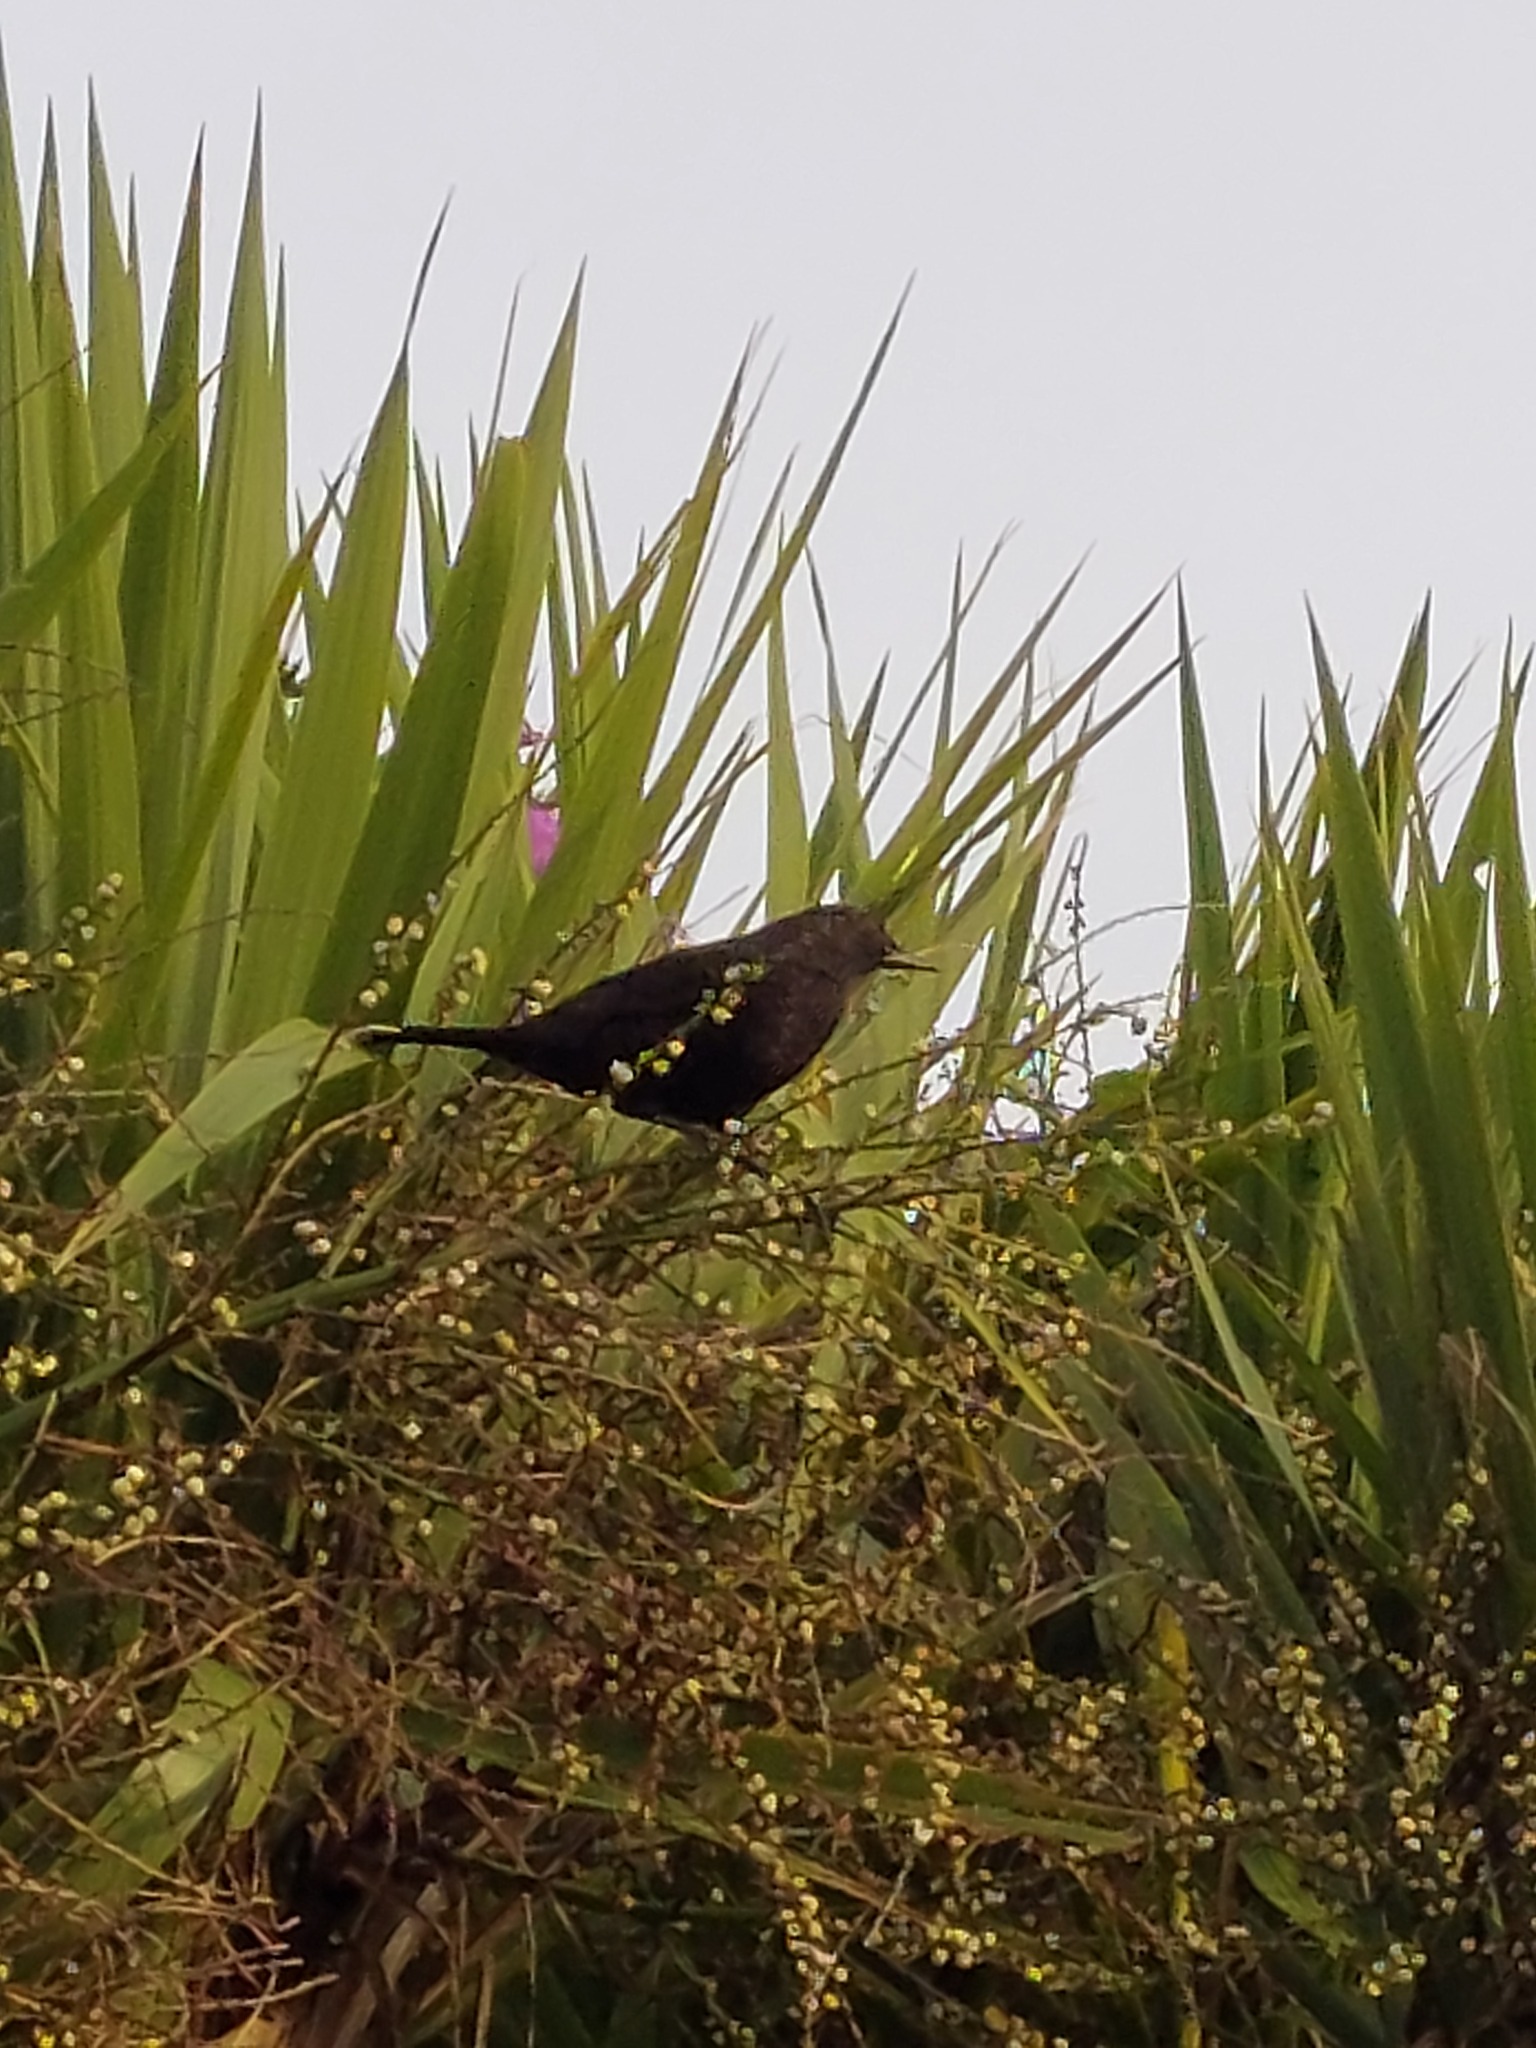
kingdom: Animalia
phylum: Chordata
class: Aves
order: Passeriformes
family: Turdidae
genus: Turdus
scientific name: Turdus merula
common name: Common blackbird
